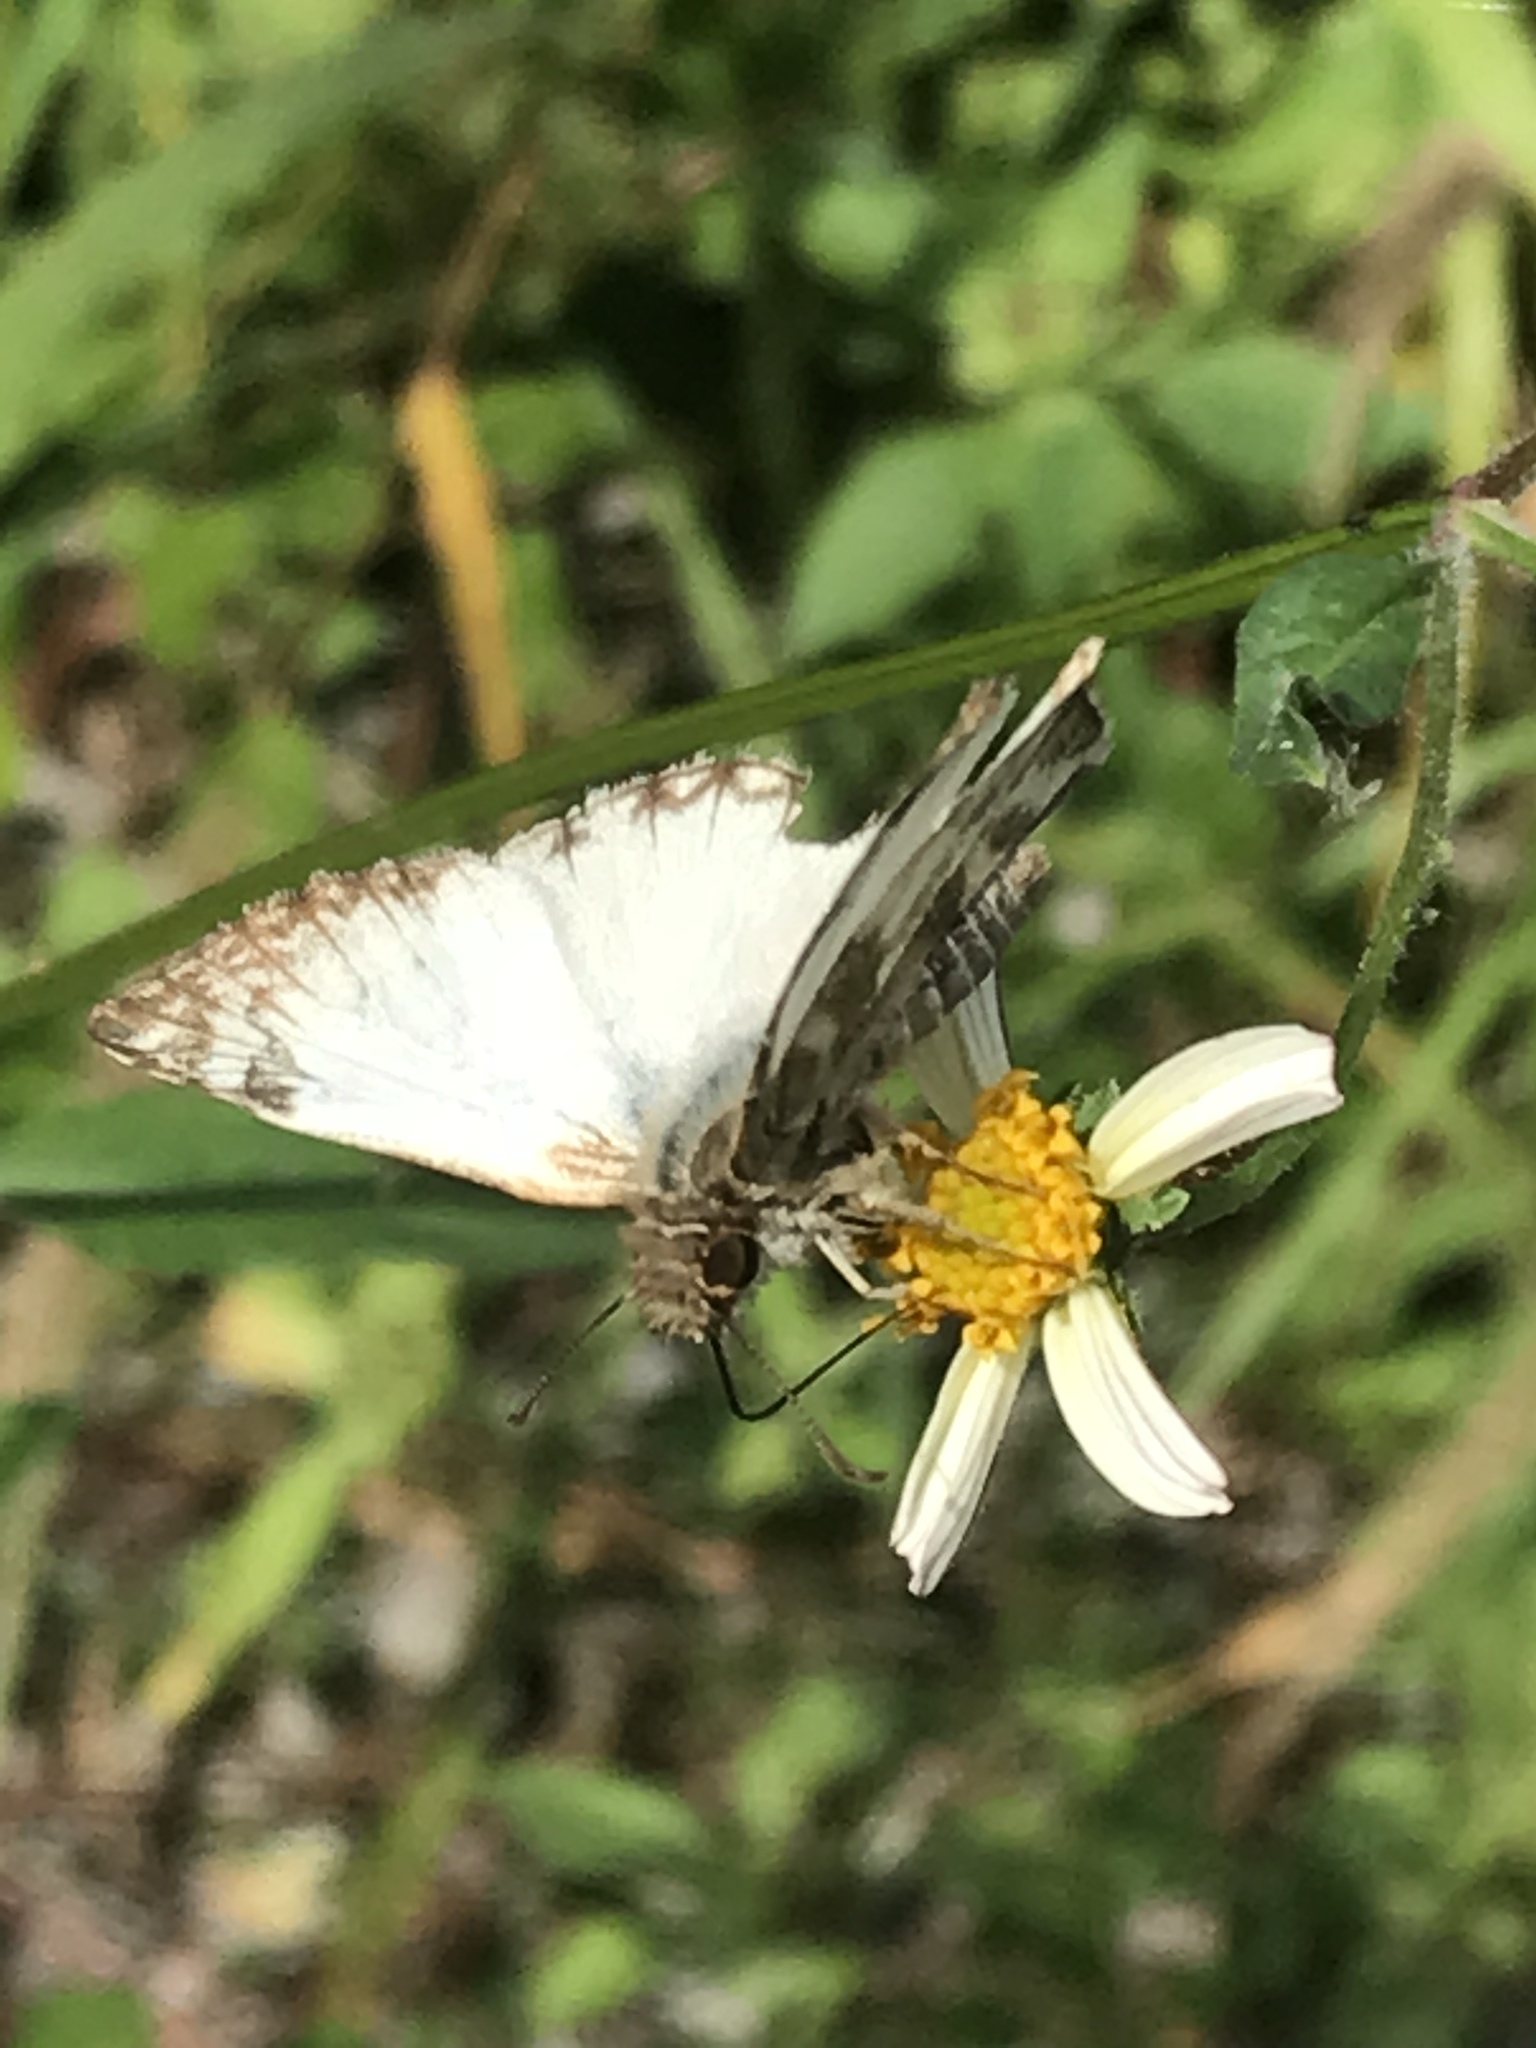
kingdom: Animalia
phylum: Arthropoda
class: Insecta
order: Lepidoptera
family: Hesperiidae
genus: Heliopetes
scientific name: Heliopetes laviana
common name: Laviana white-skipper
